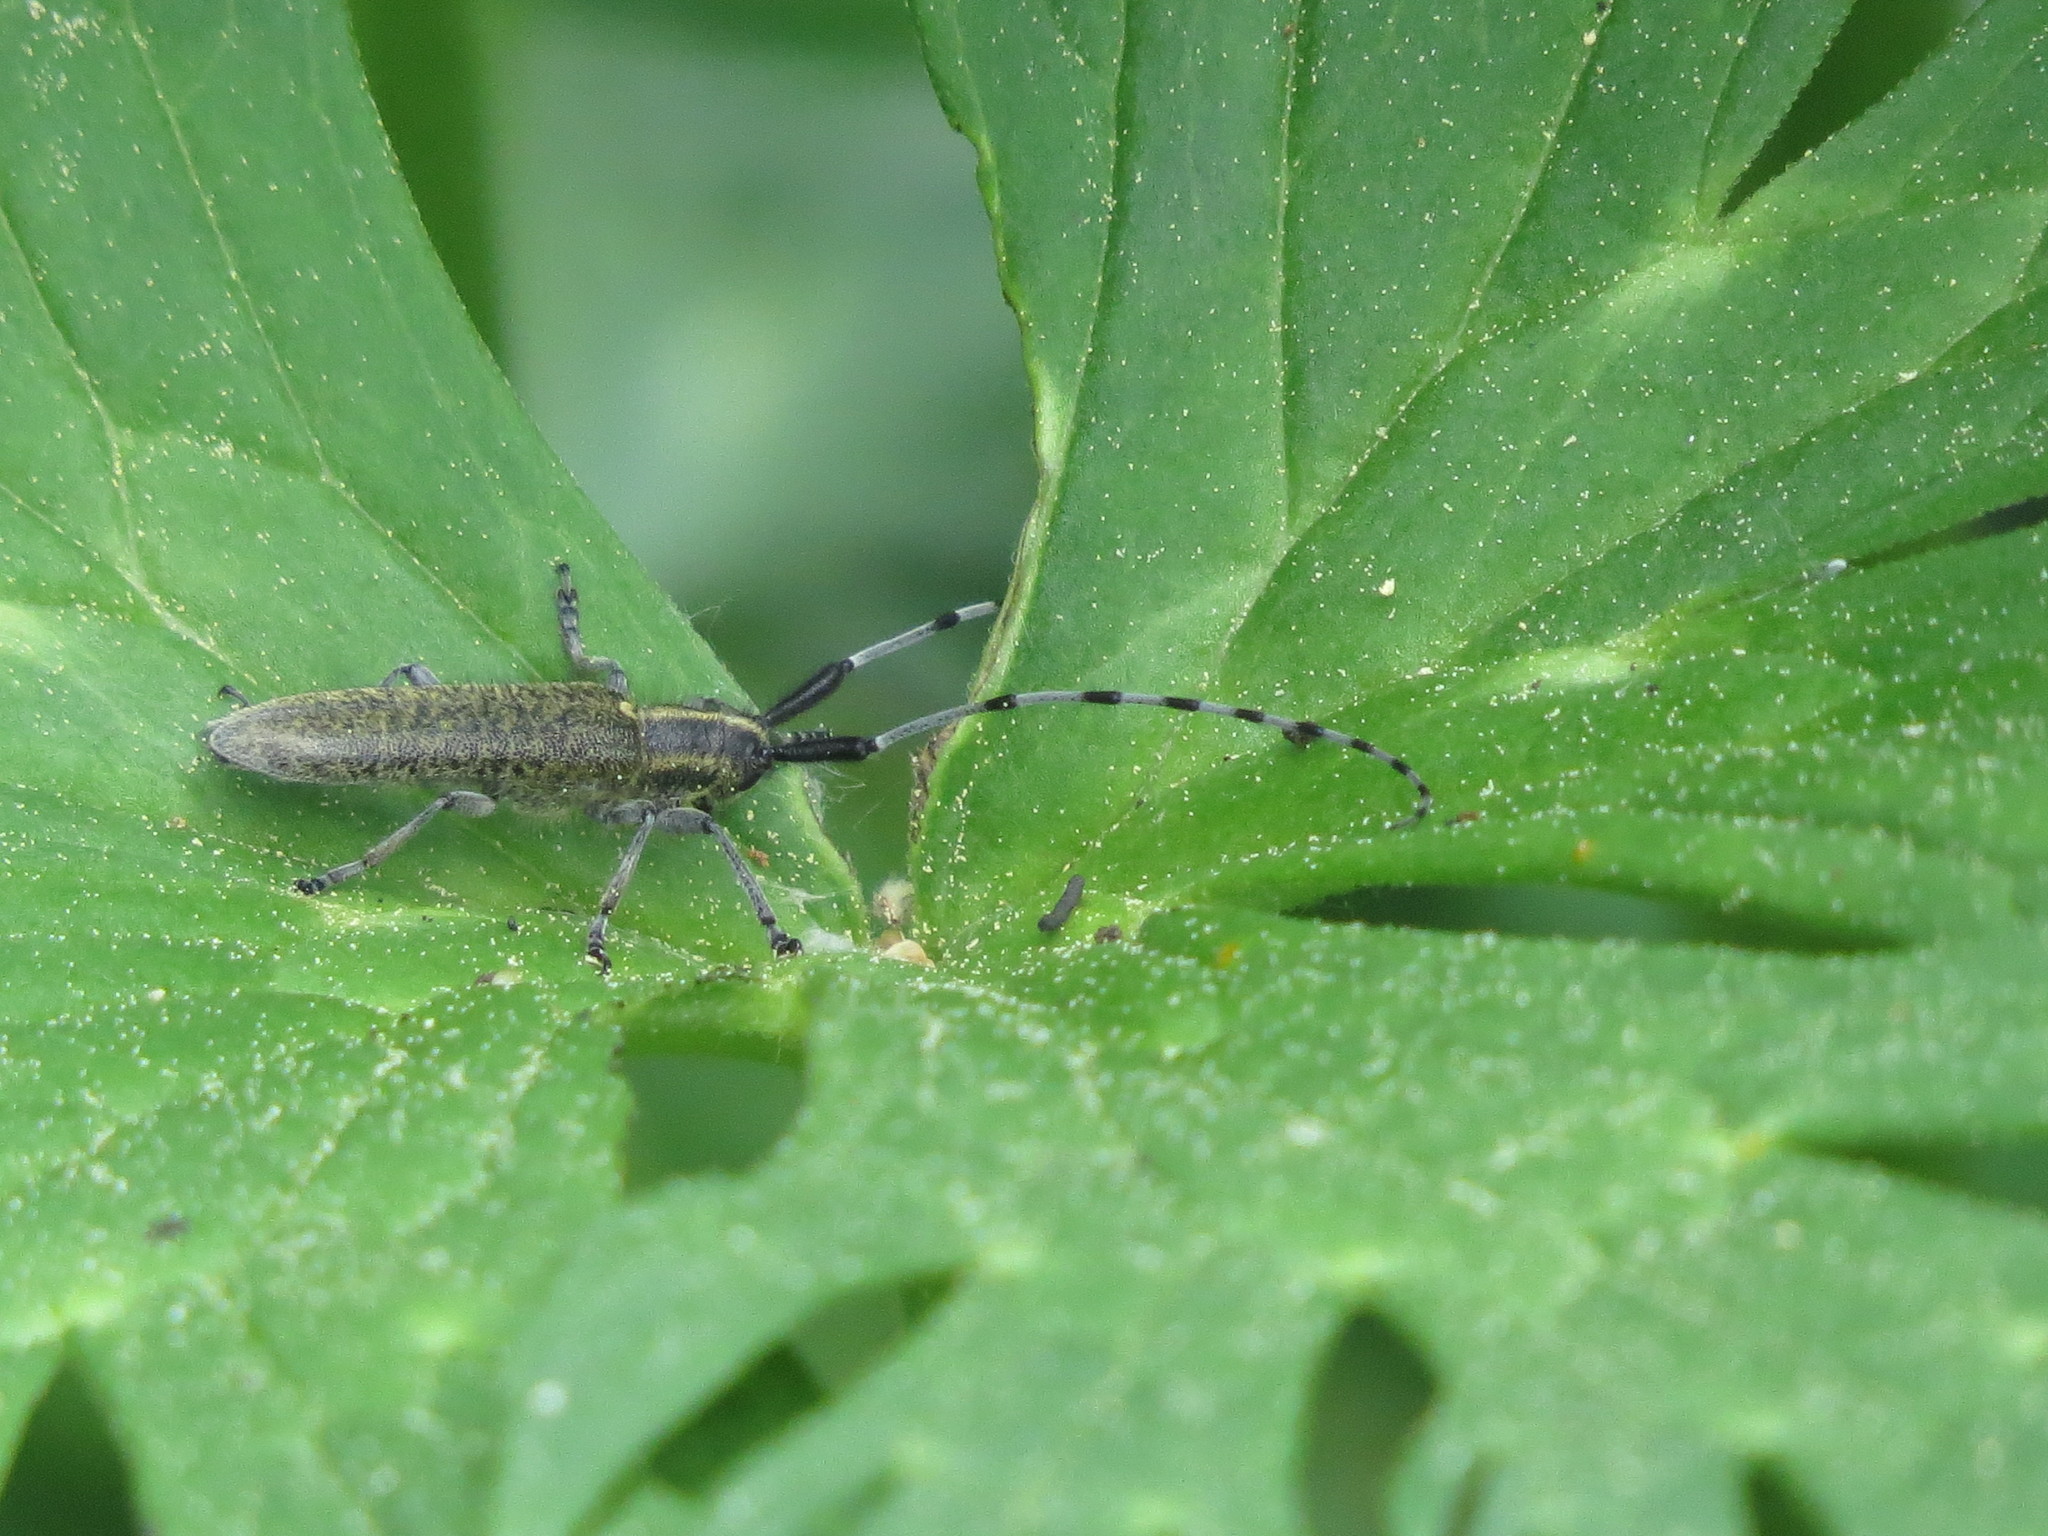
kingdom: Animalia
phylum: Arthropoda
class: Insecta
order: Coleoptera
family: Cerambycidae
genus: Agapanthia
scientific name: Agapanthia villosoviridescens
